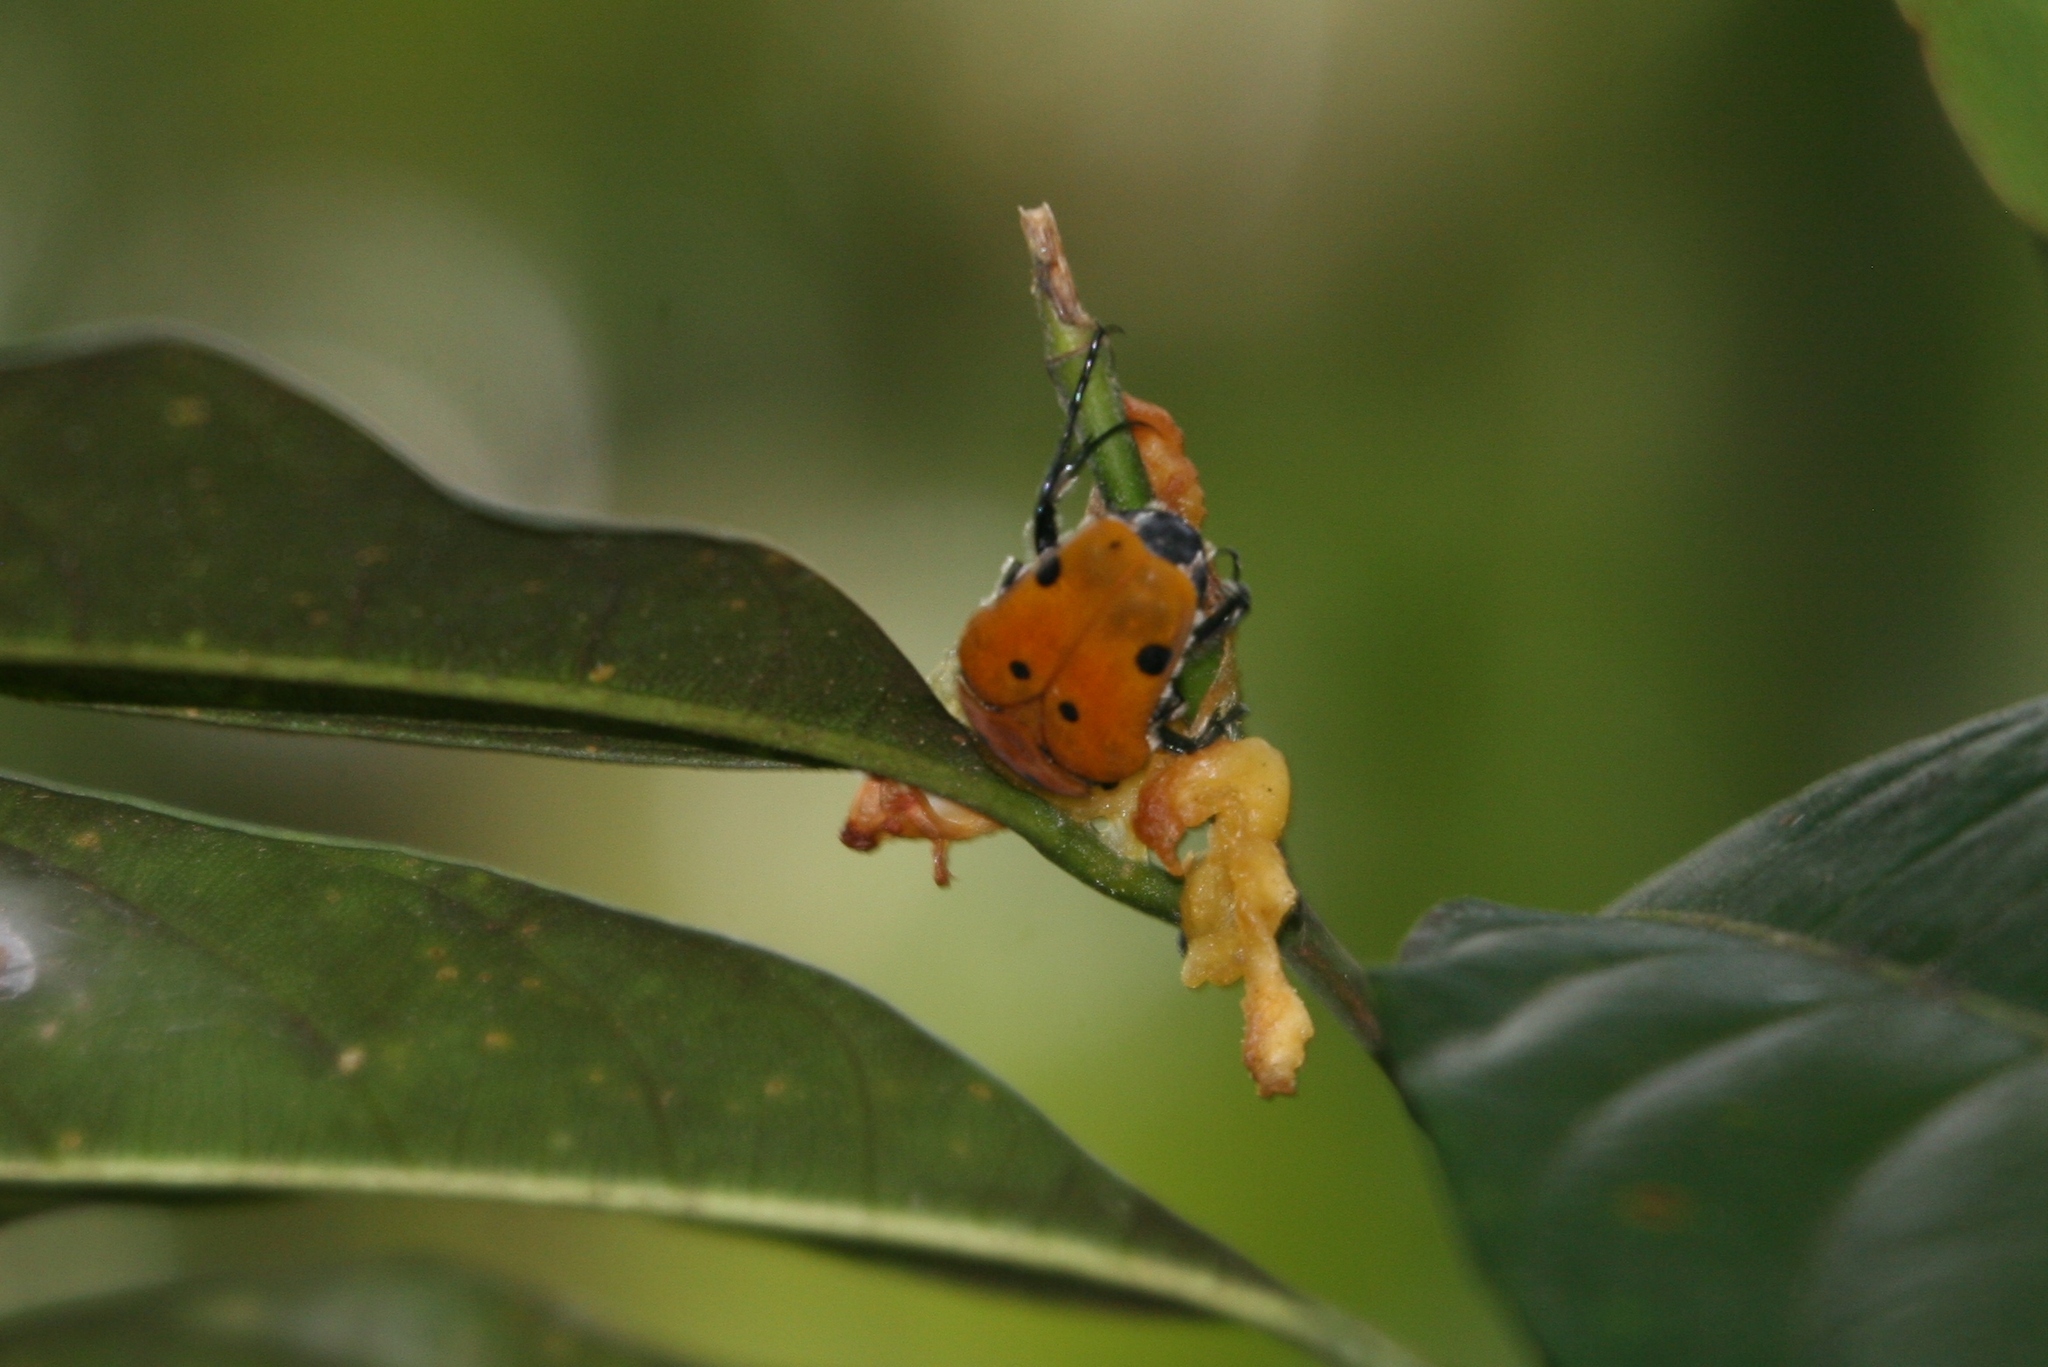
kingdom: Animalia
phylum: Arthropoda
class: Insecta
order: Coleoptera
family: Scarabaeidae
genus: Doryscelis
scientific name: Doryscelis calcarata
